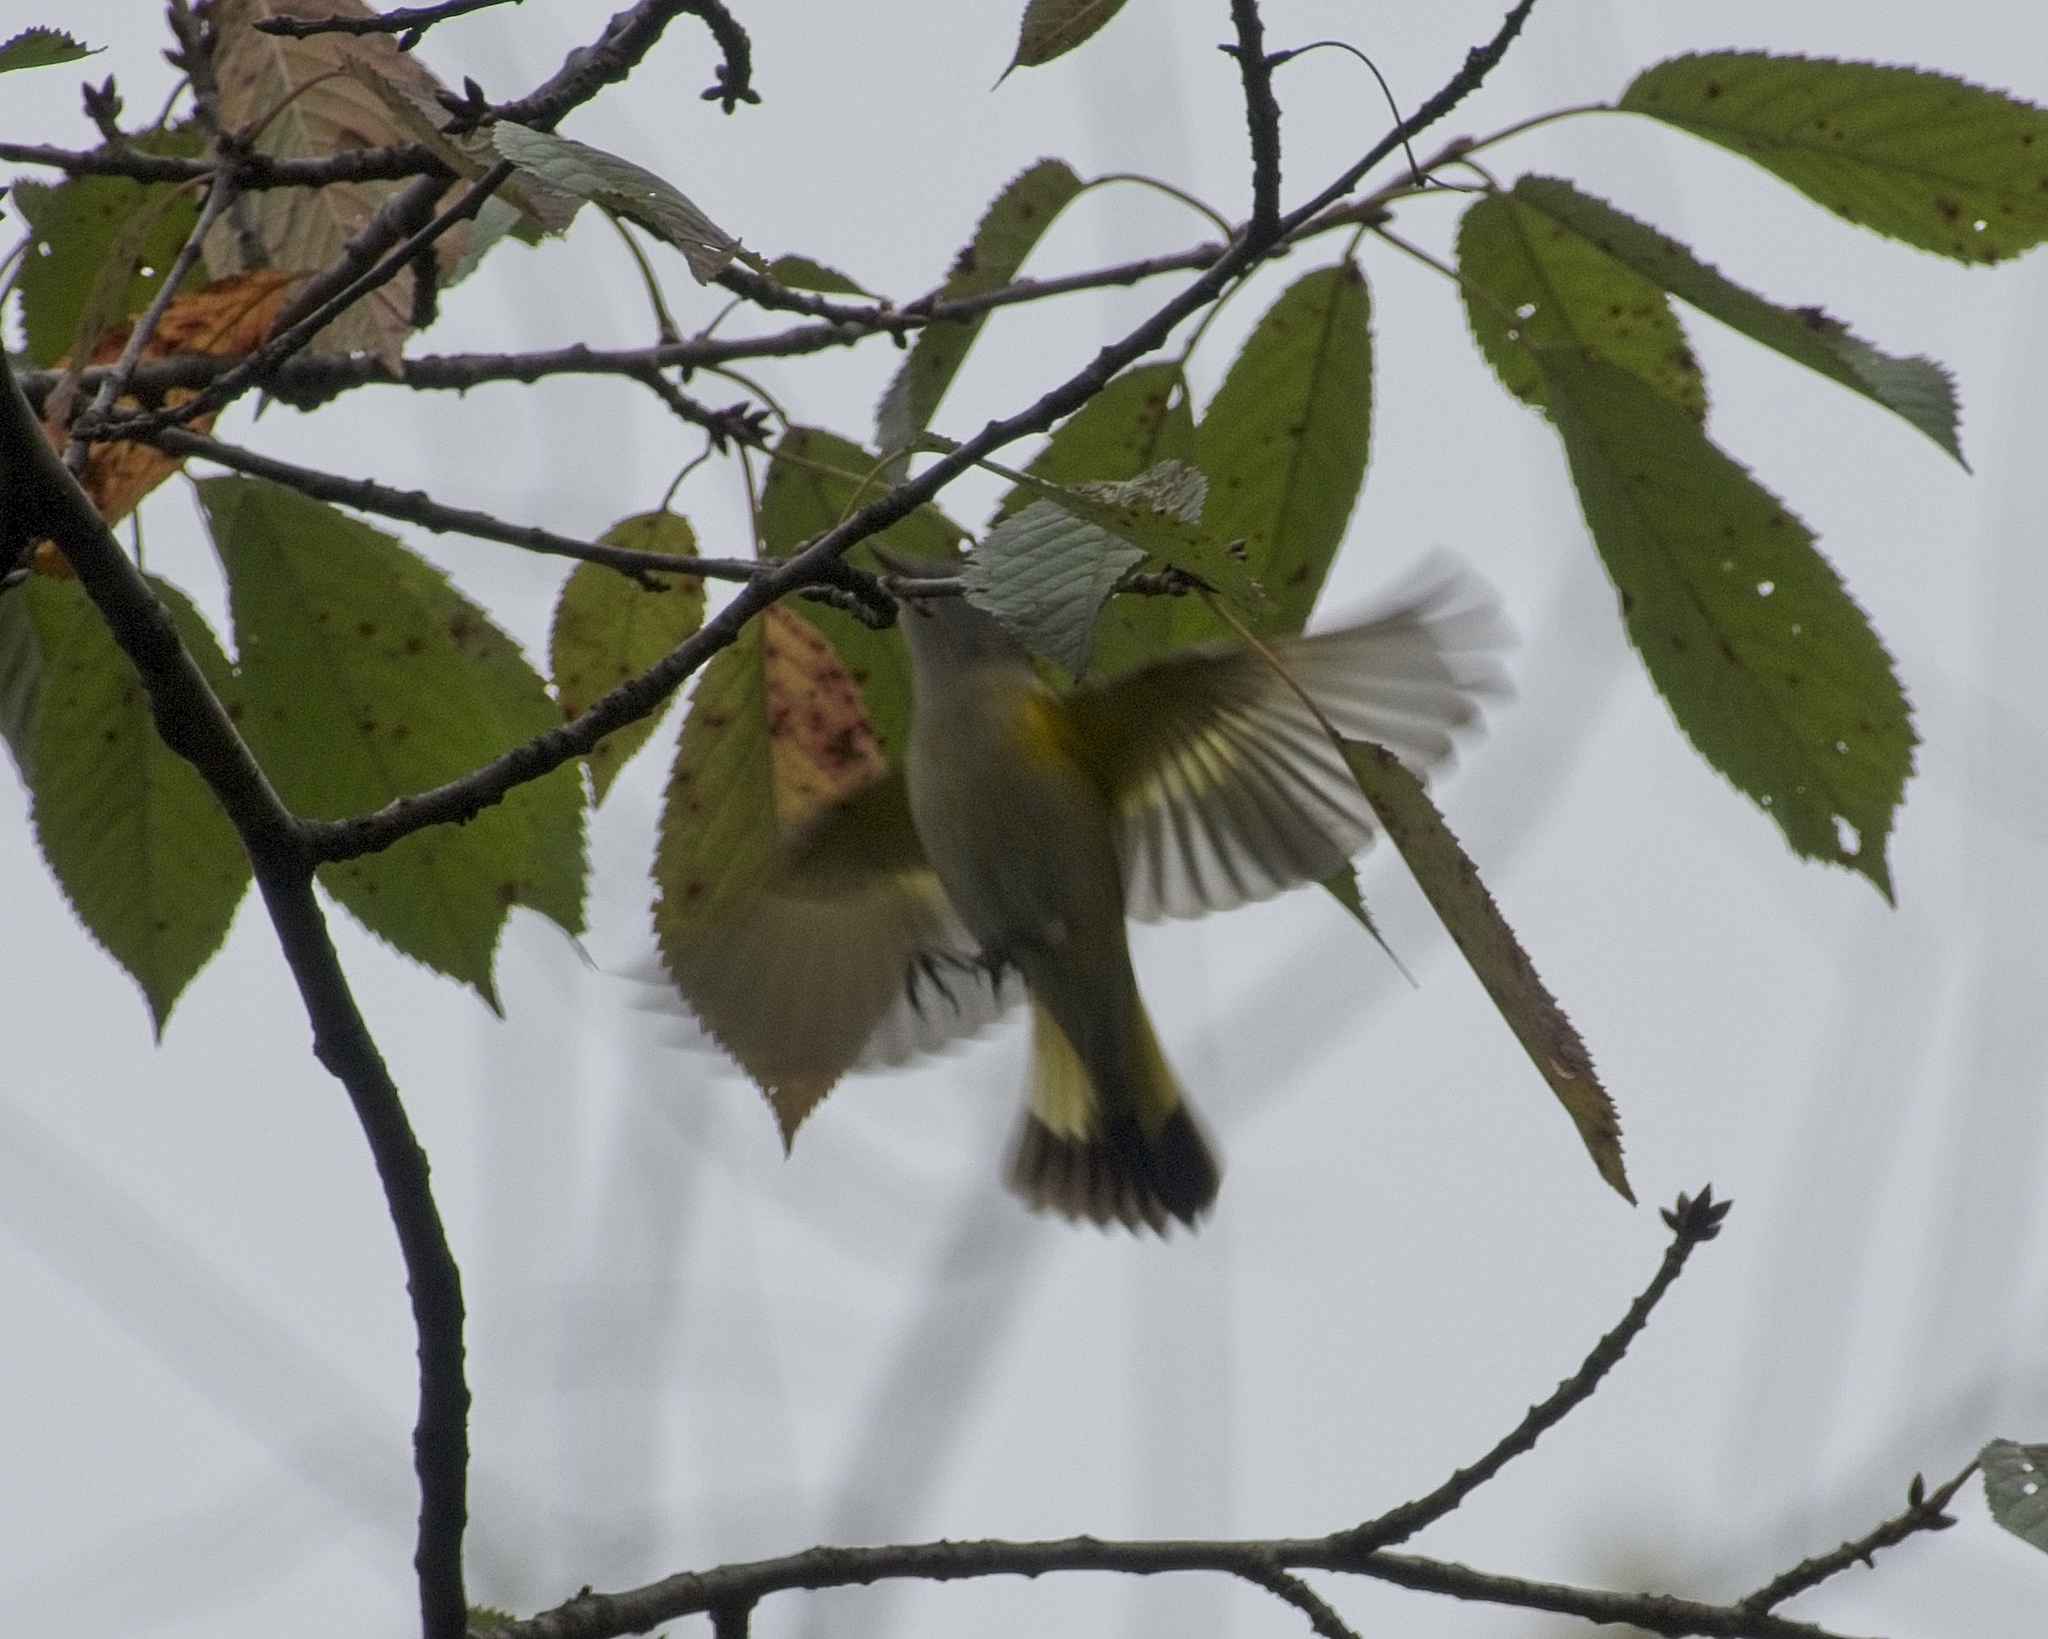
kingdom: Animalia
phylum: Chordata
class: Aves
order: Passeriformes
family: Parulidae
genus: Setophaga
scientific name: Setophaga ruticilla
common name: American redstart
